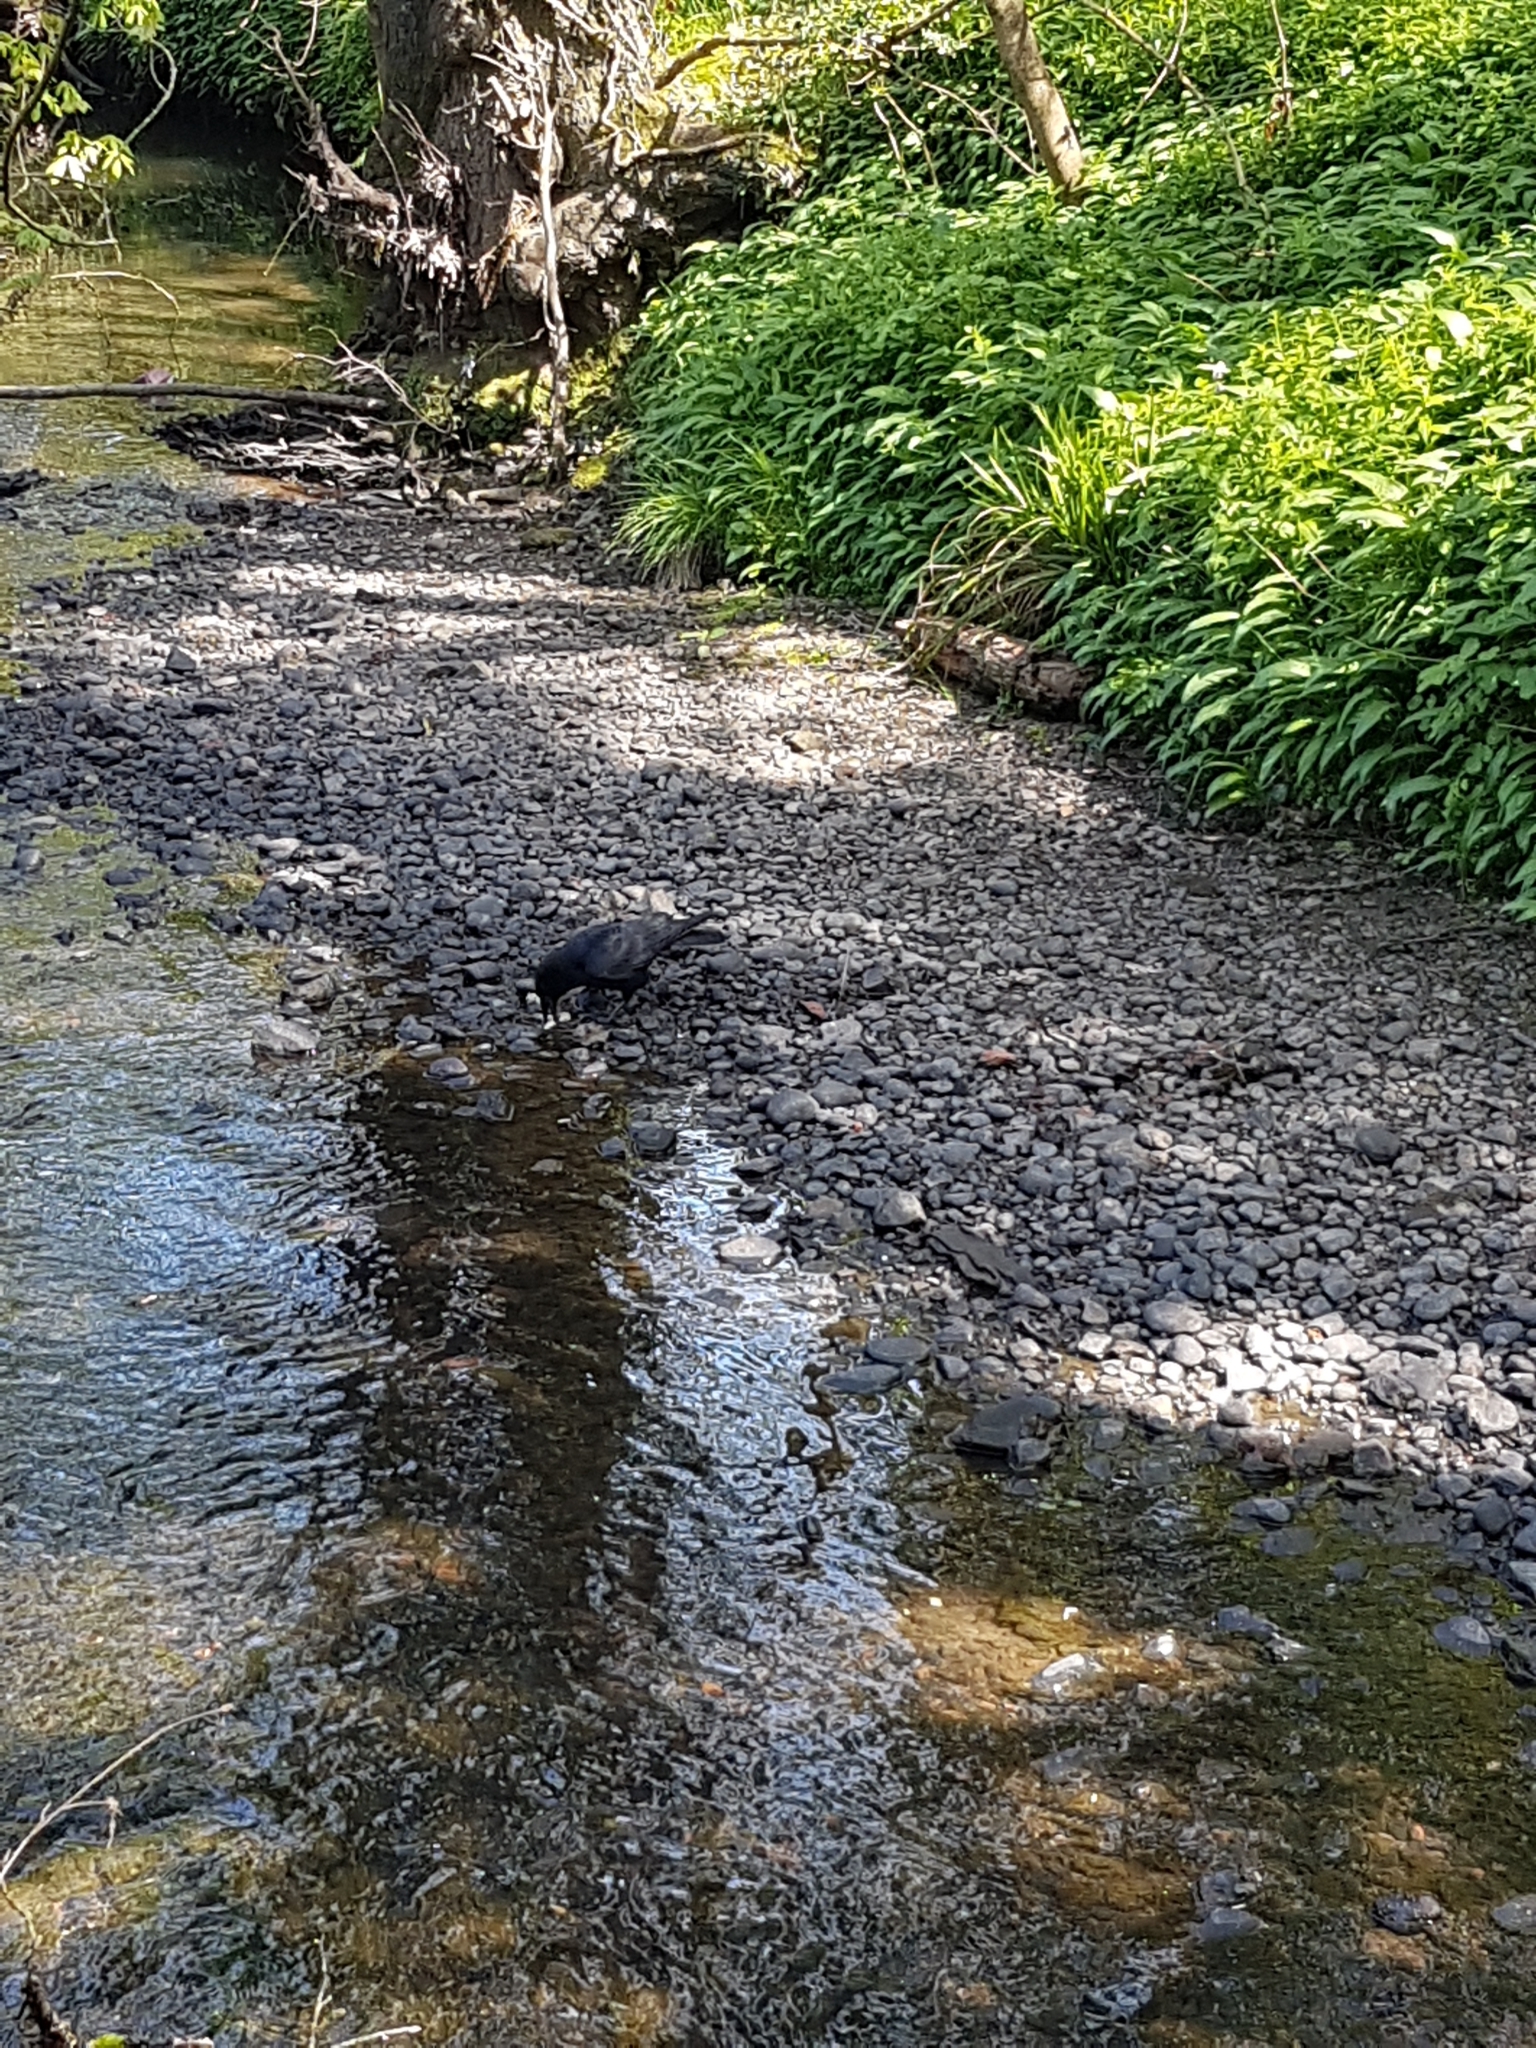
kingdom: Animalia
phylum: Chordata
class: Aves
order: Passeriformes
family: Corvidae
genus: Corvus
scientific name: Corvus corone
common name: Carrion crow
